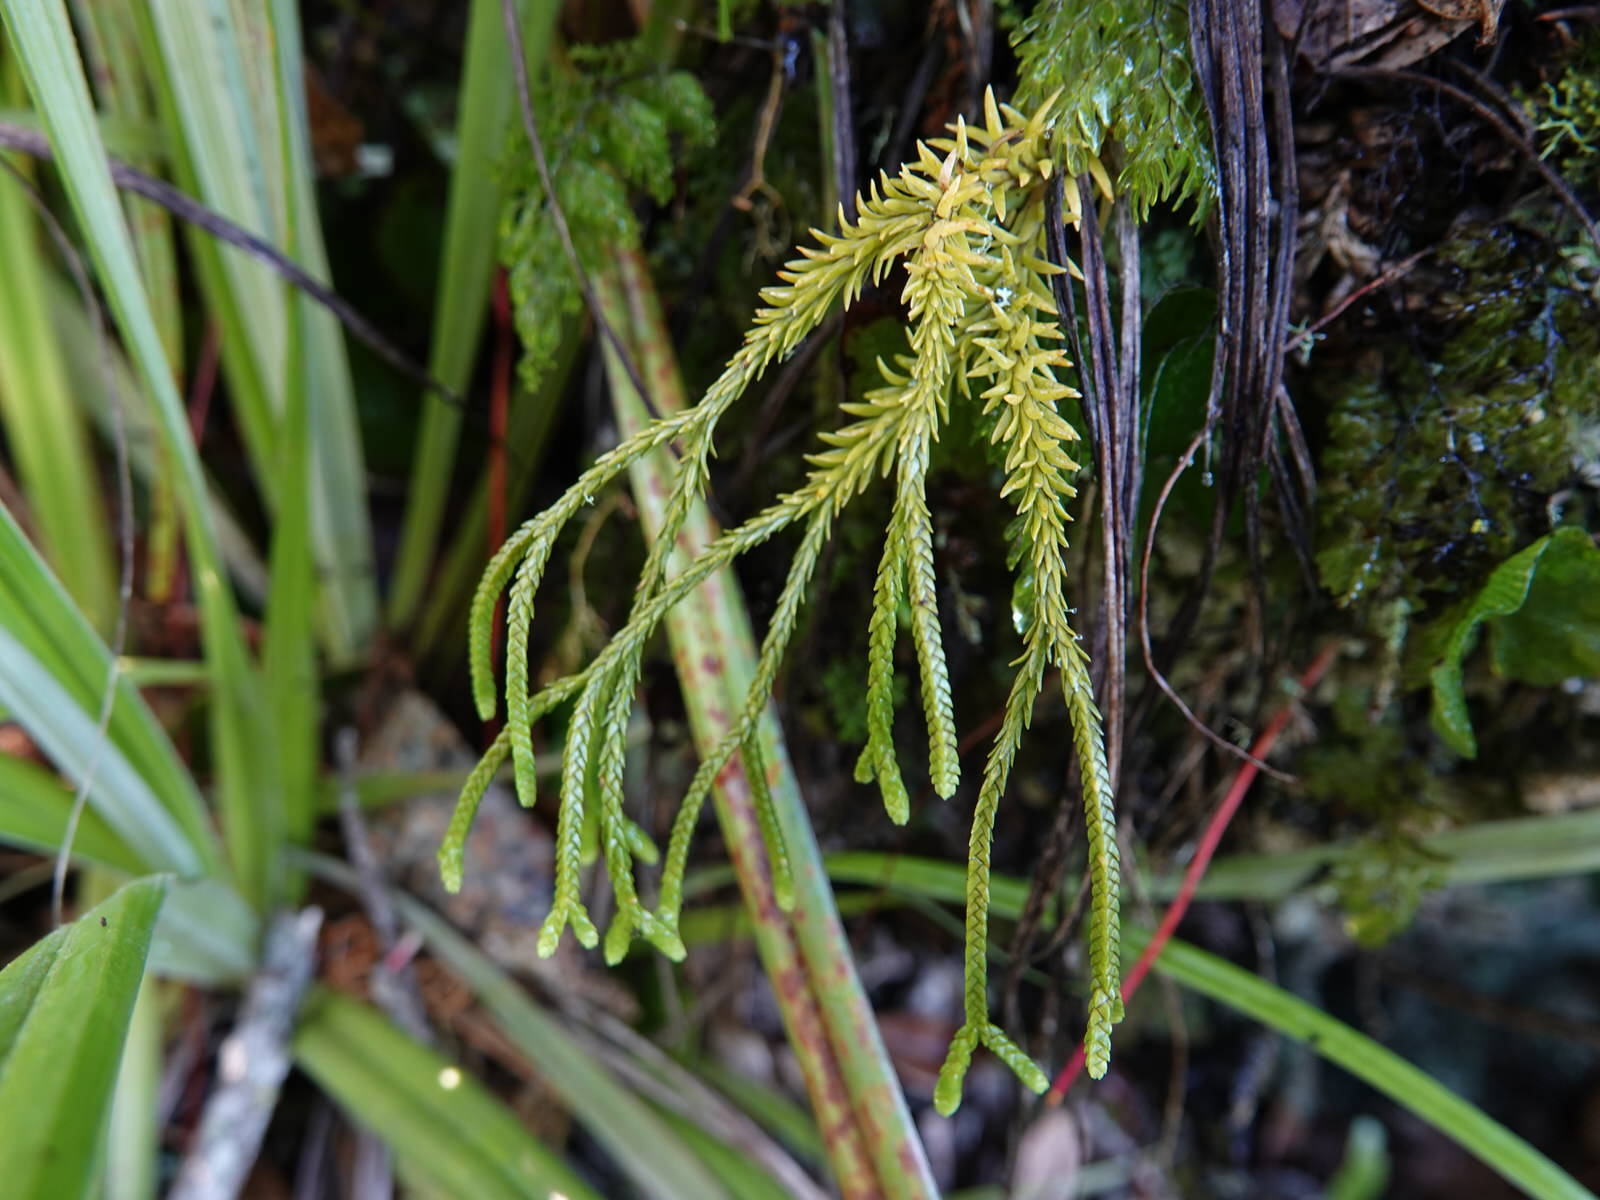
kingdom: Plantae
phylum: Tracheophyta
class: Lycopodiopsida
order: Lycopodiales
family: Lycopodiaceae
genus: Phlegmariurus
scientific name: Phlegmariurus varius
